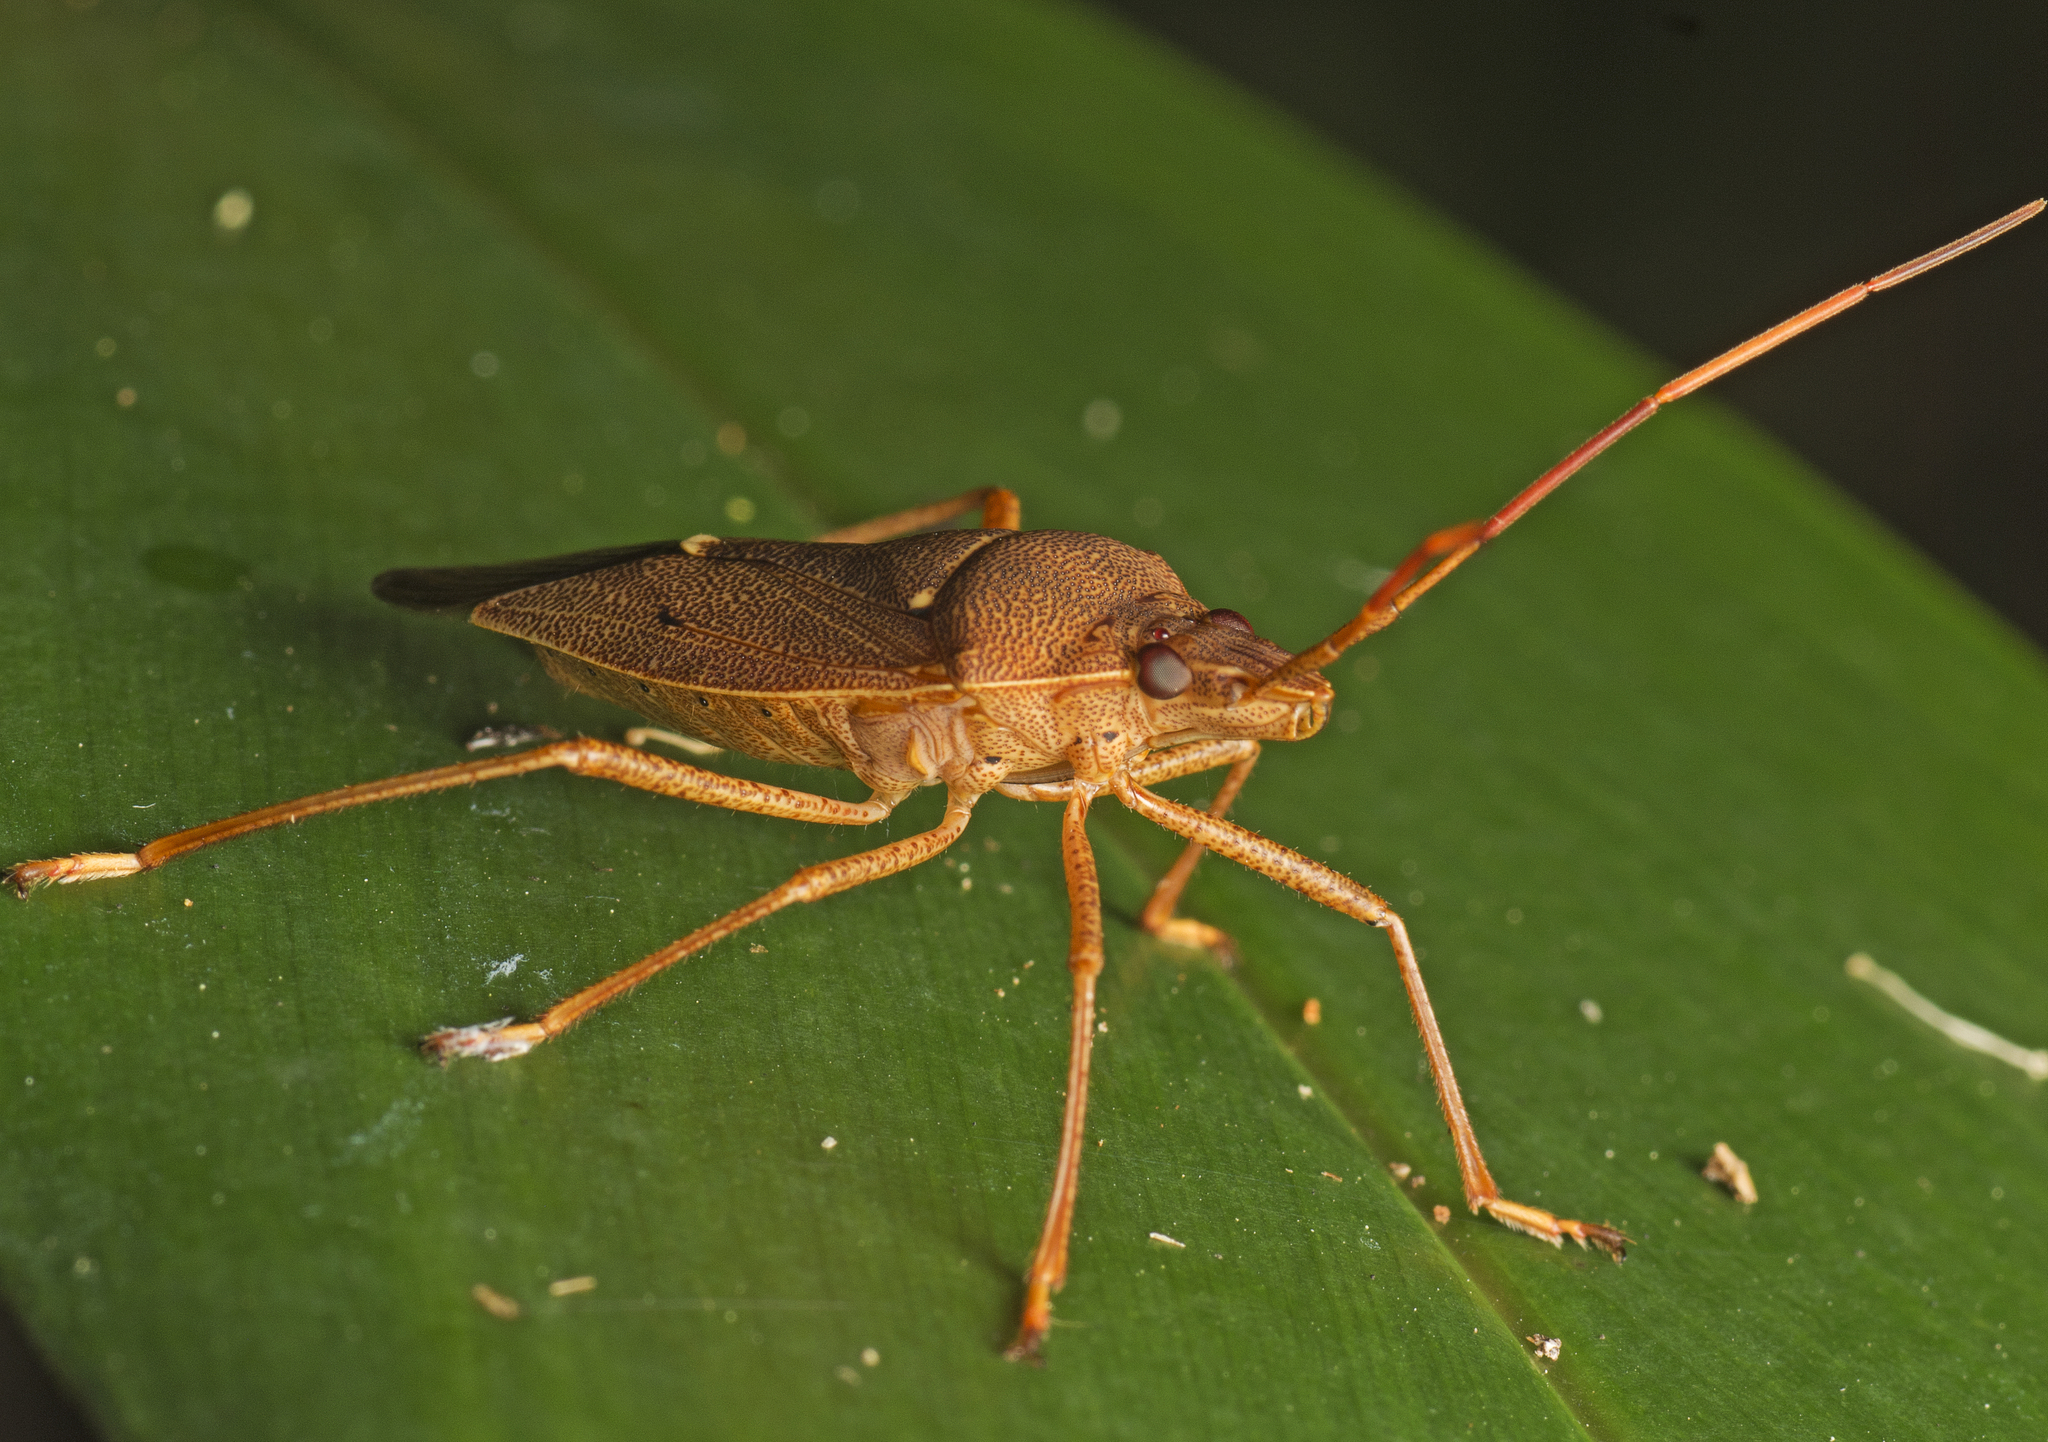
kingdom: Animalia
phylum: Arthropoda
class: Insecta
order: Hemiptera
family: Pentatomidae
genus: Poecilometis
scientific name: Poecilometis
